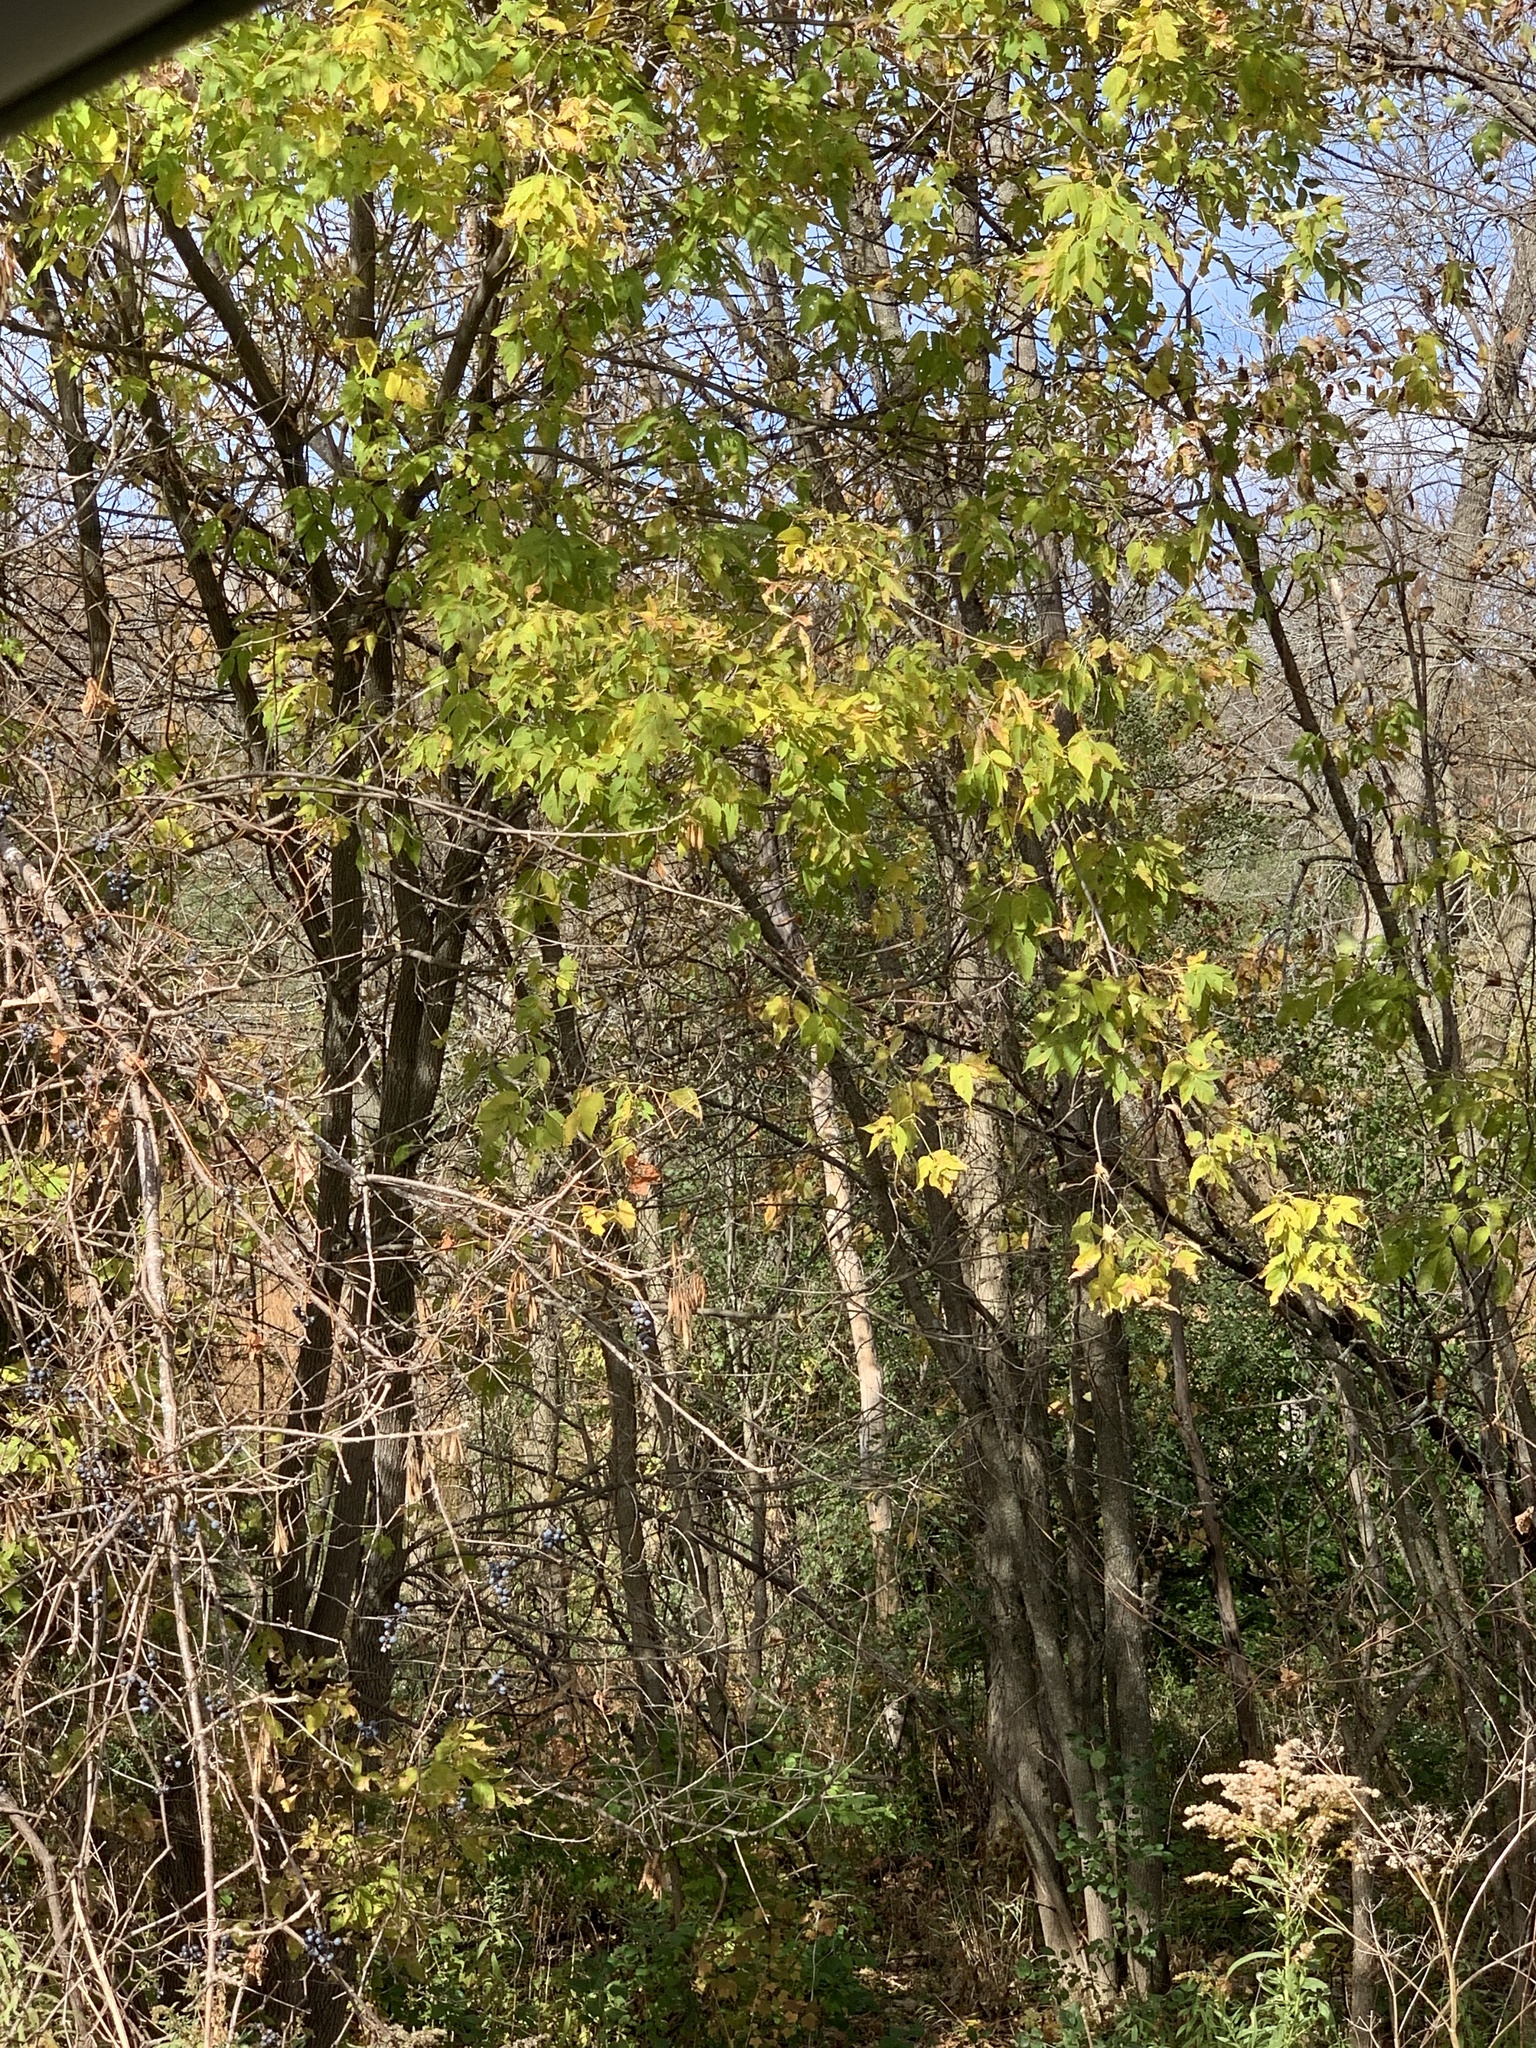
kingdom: Plantae
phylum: Tracheophyta
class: Magnoliopsida
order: Sapindales
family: Sapindaceae
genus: Acer
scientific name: Acer negundo
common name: Ashleaf maple
